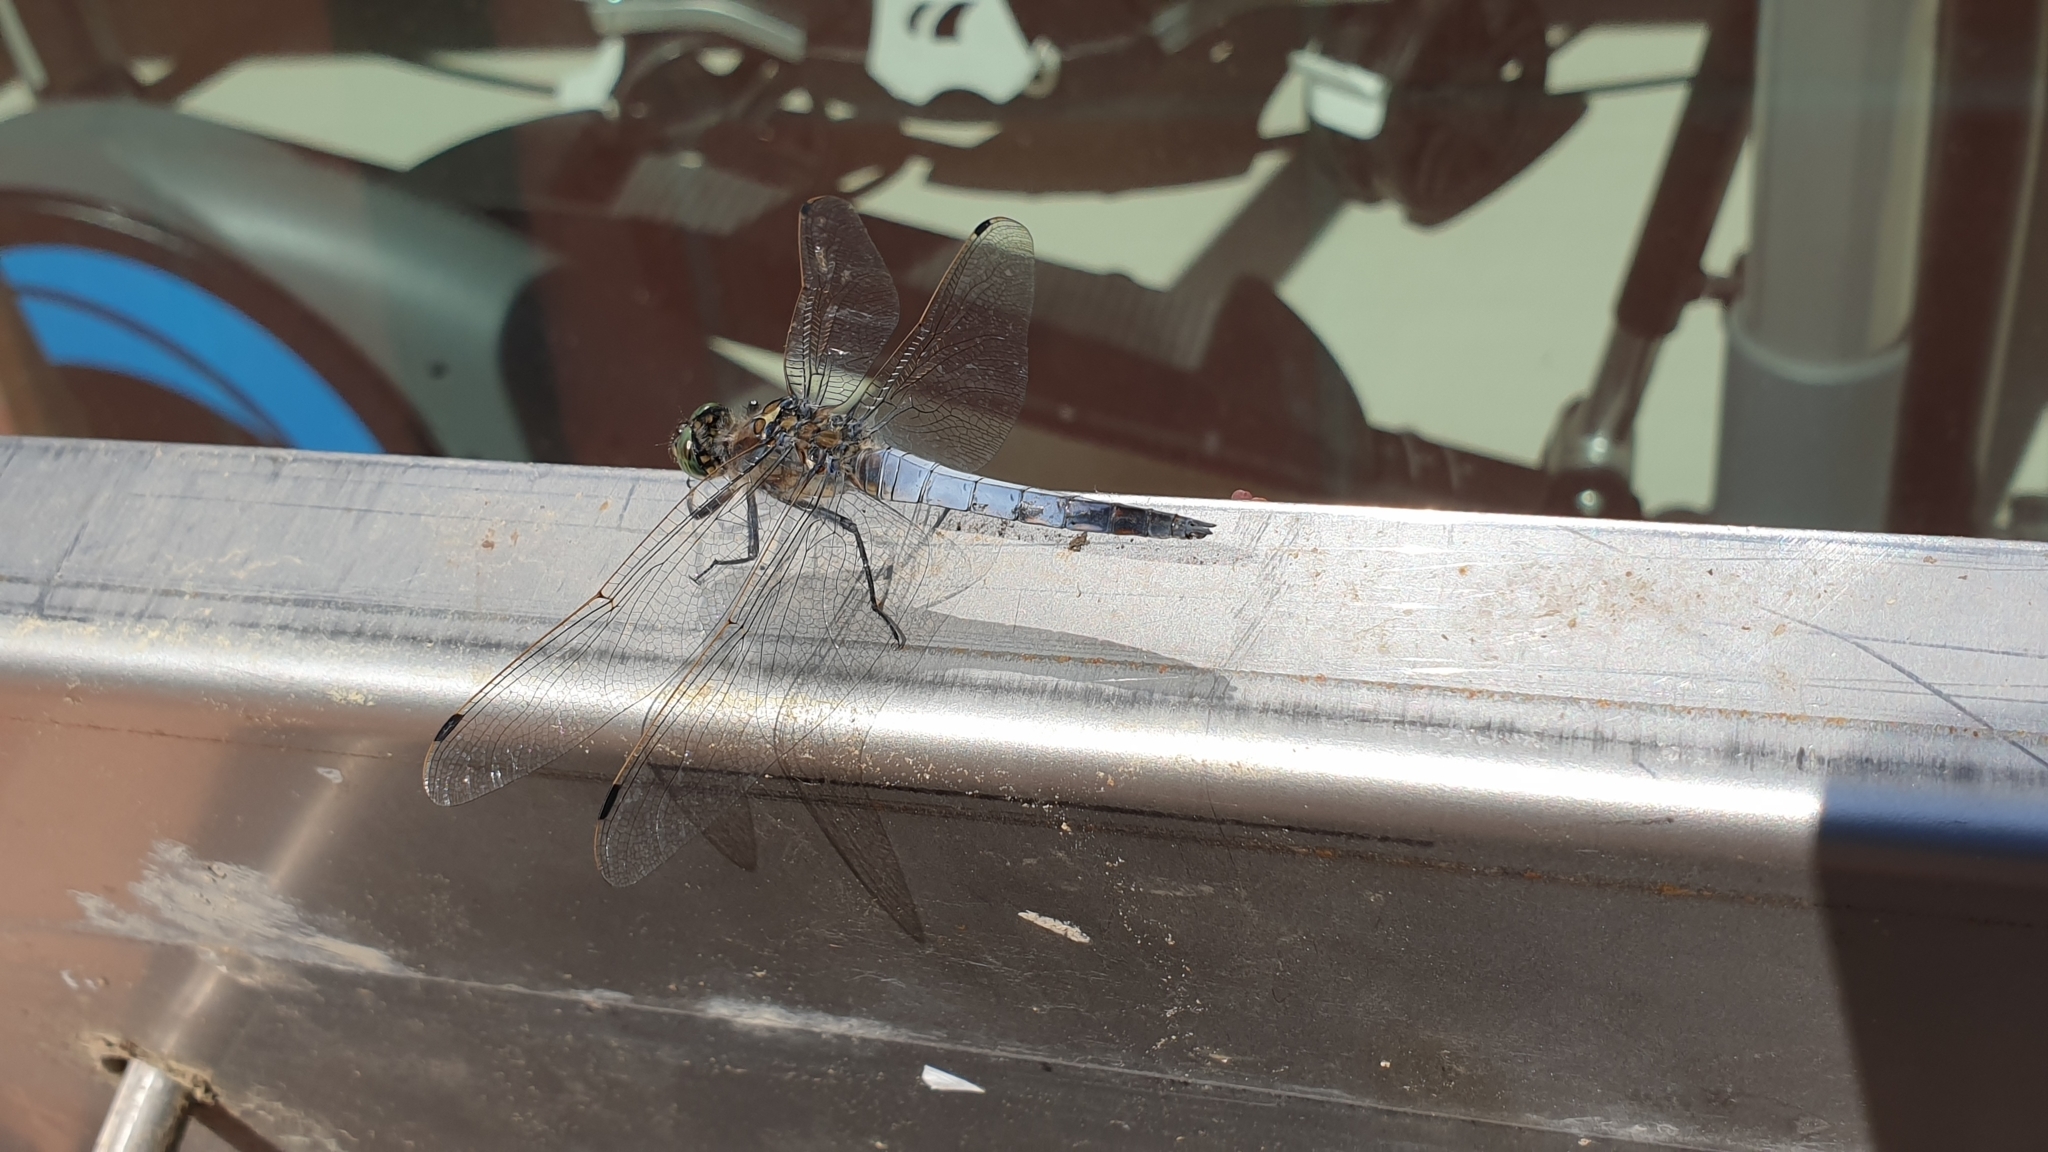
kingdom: Animalia
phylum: Arthropoda
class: Insecta
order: Odonata
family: Libellulidae
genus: Orthetrum
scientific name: Orthetrum cancellatum
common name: Black-tailed skimmer
